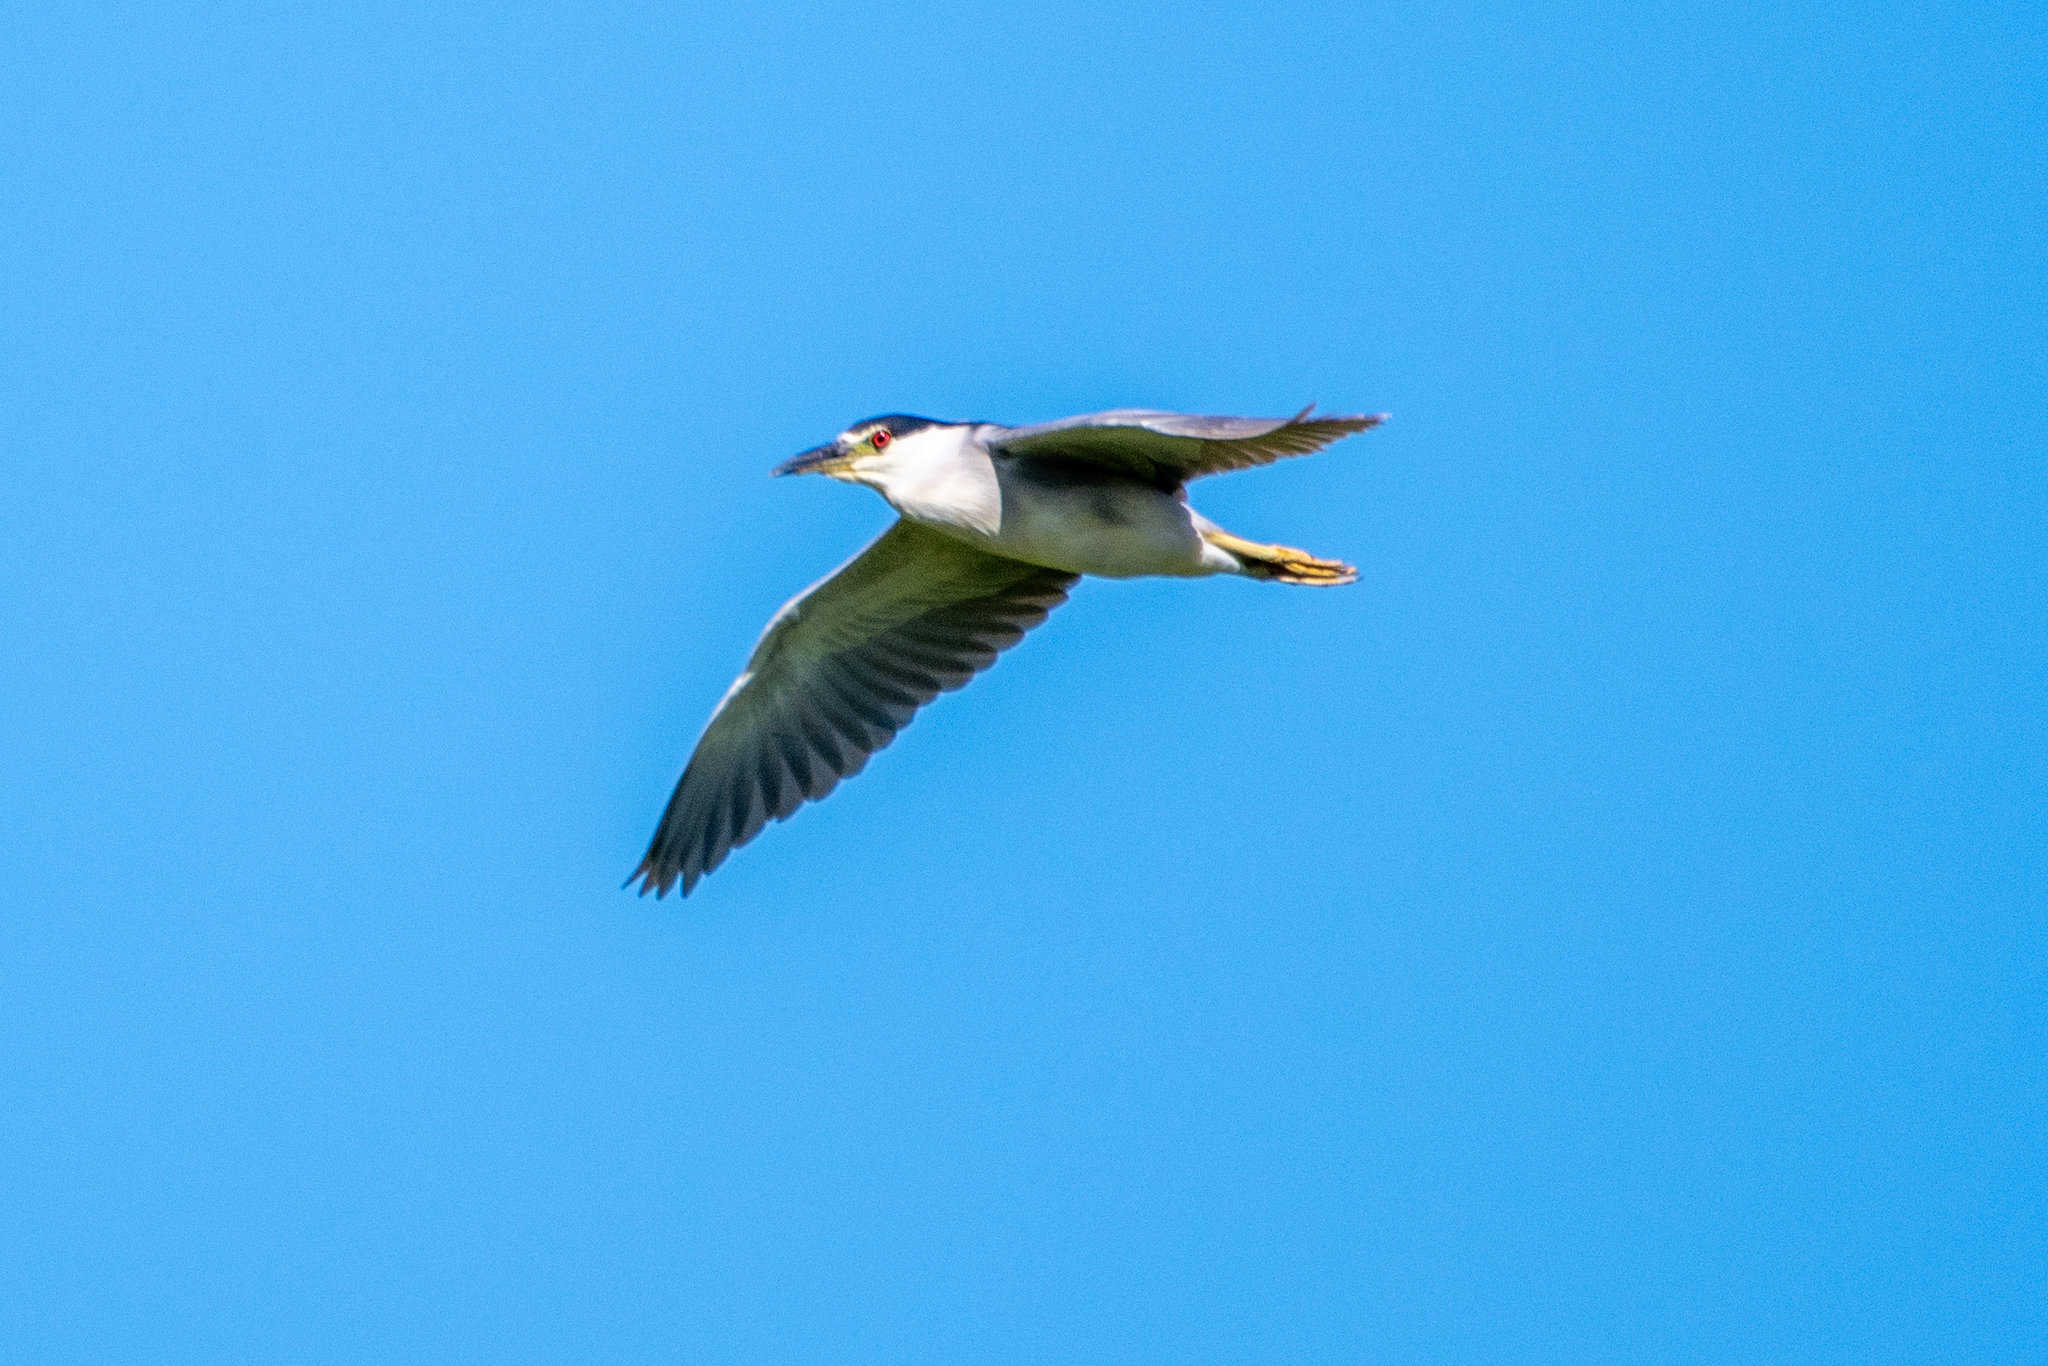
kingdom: Animalia
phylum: Chordata
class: Aves
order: Pelecaniformes
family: Ardeidae
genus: Nycticorax
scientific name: Nycticorax nycticorax
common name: Black-crowned night heron
